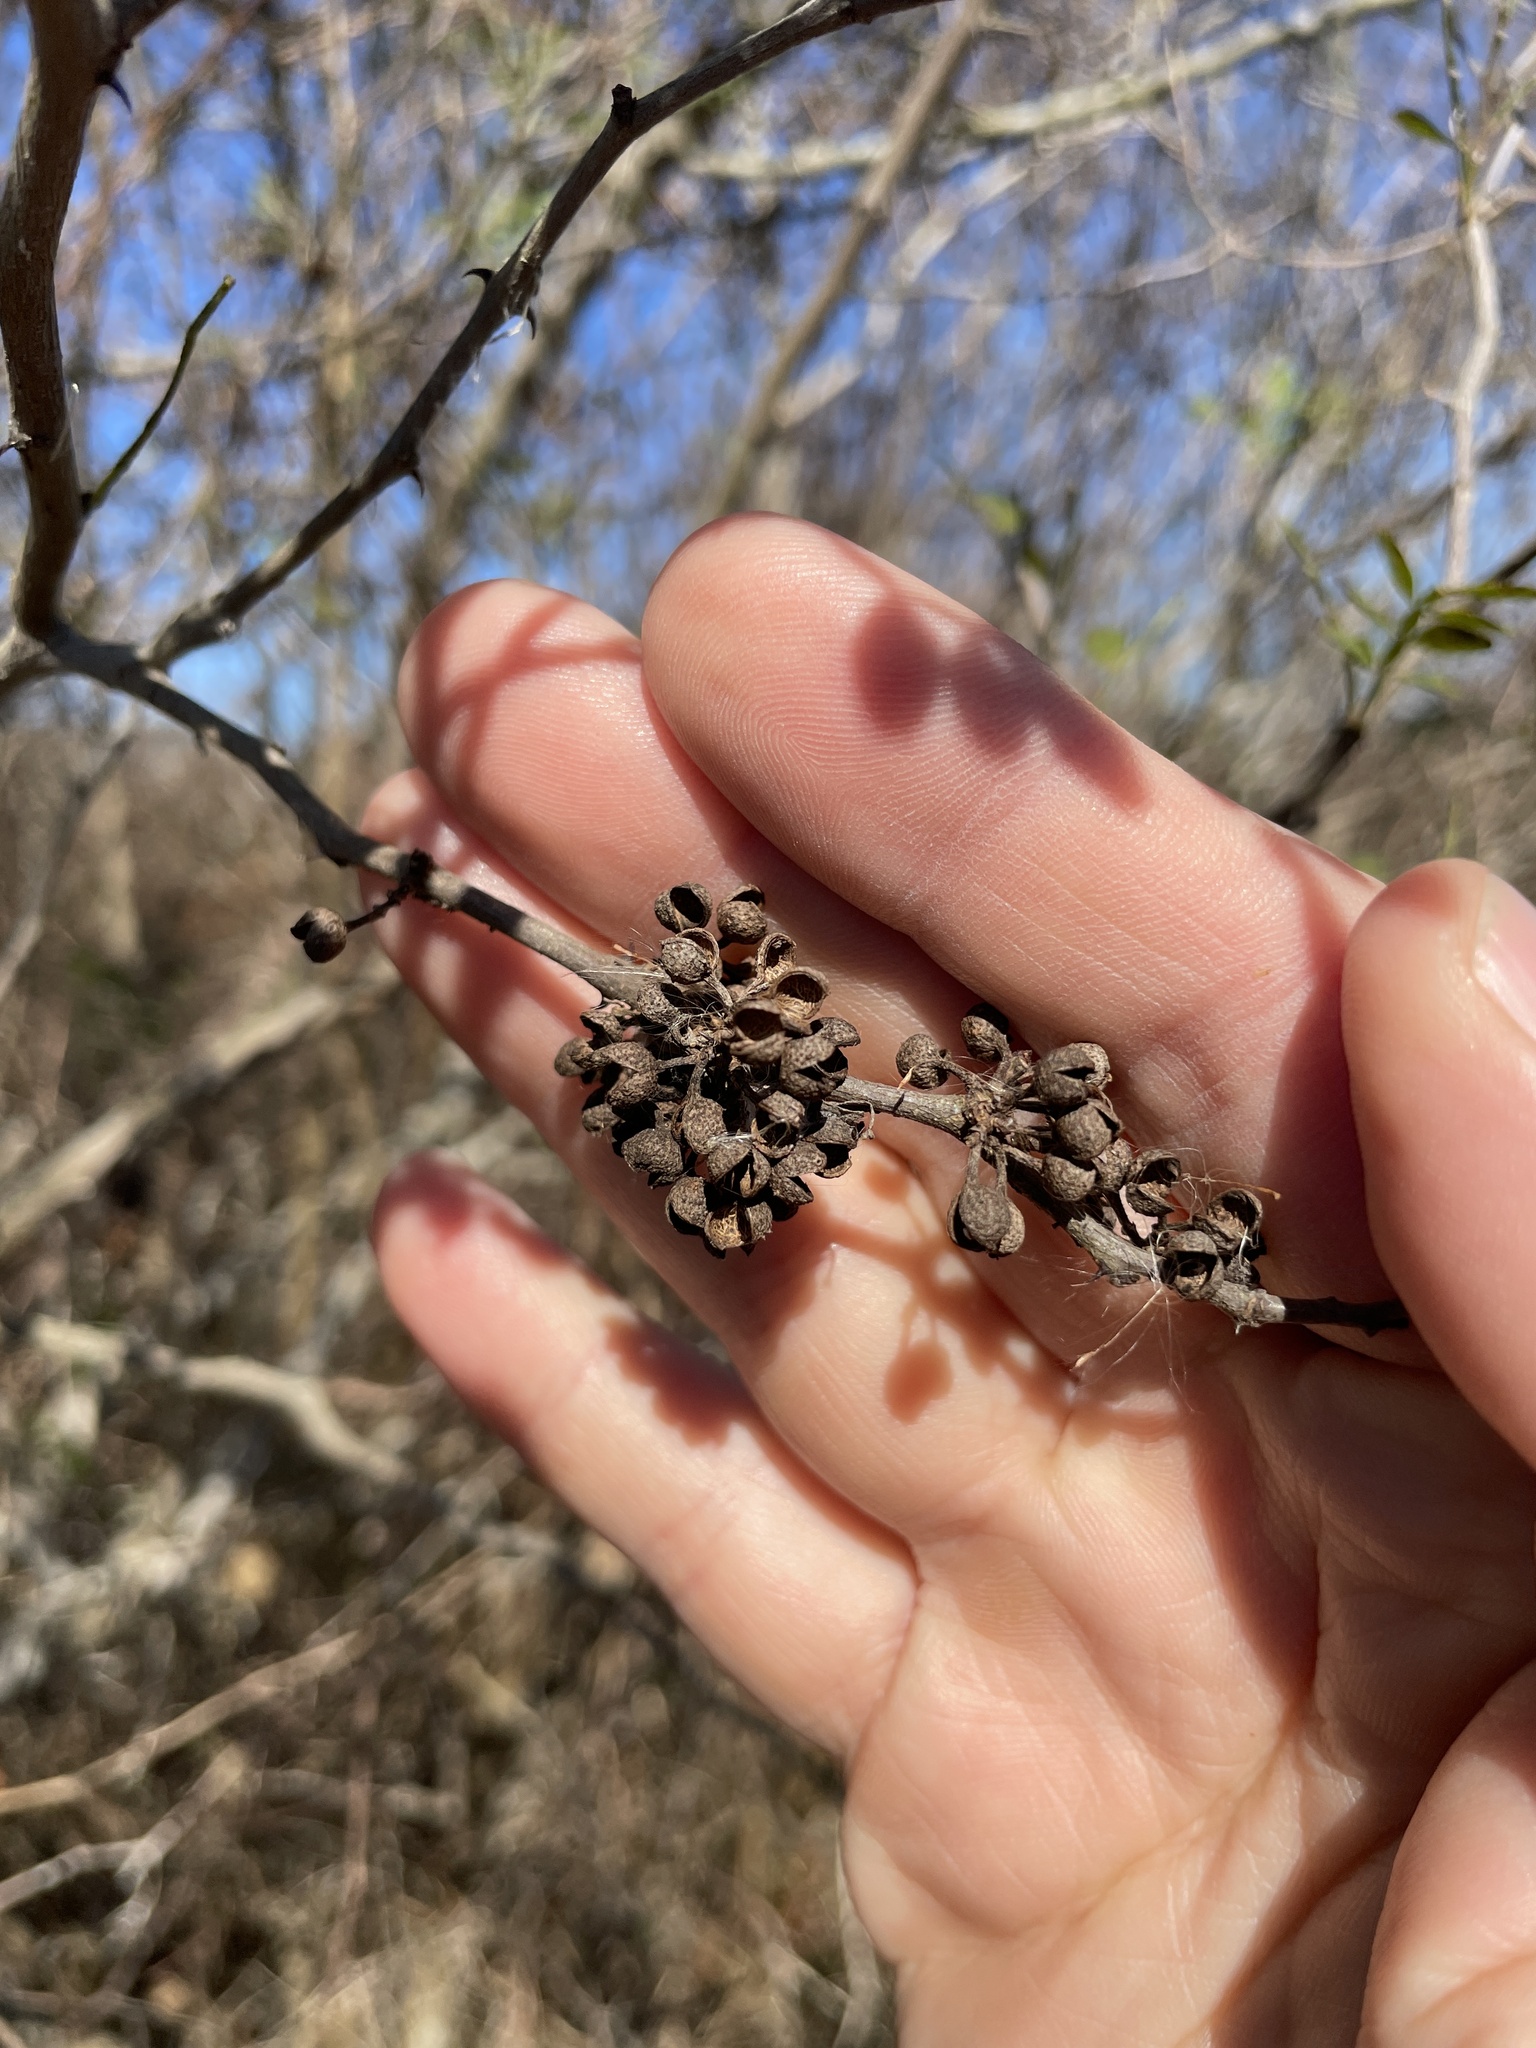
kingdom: Plantae
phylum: Tracheophyta
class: Magnoliopsida
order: Sapindales
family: Rutaceae
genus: Zanthoxylum
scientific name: Zanthoxylum fagara
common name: Lime prickly-ash
